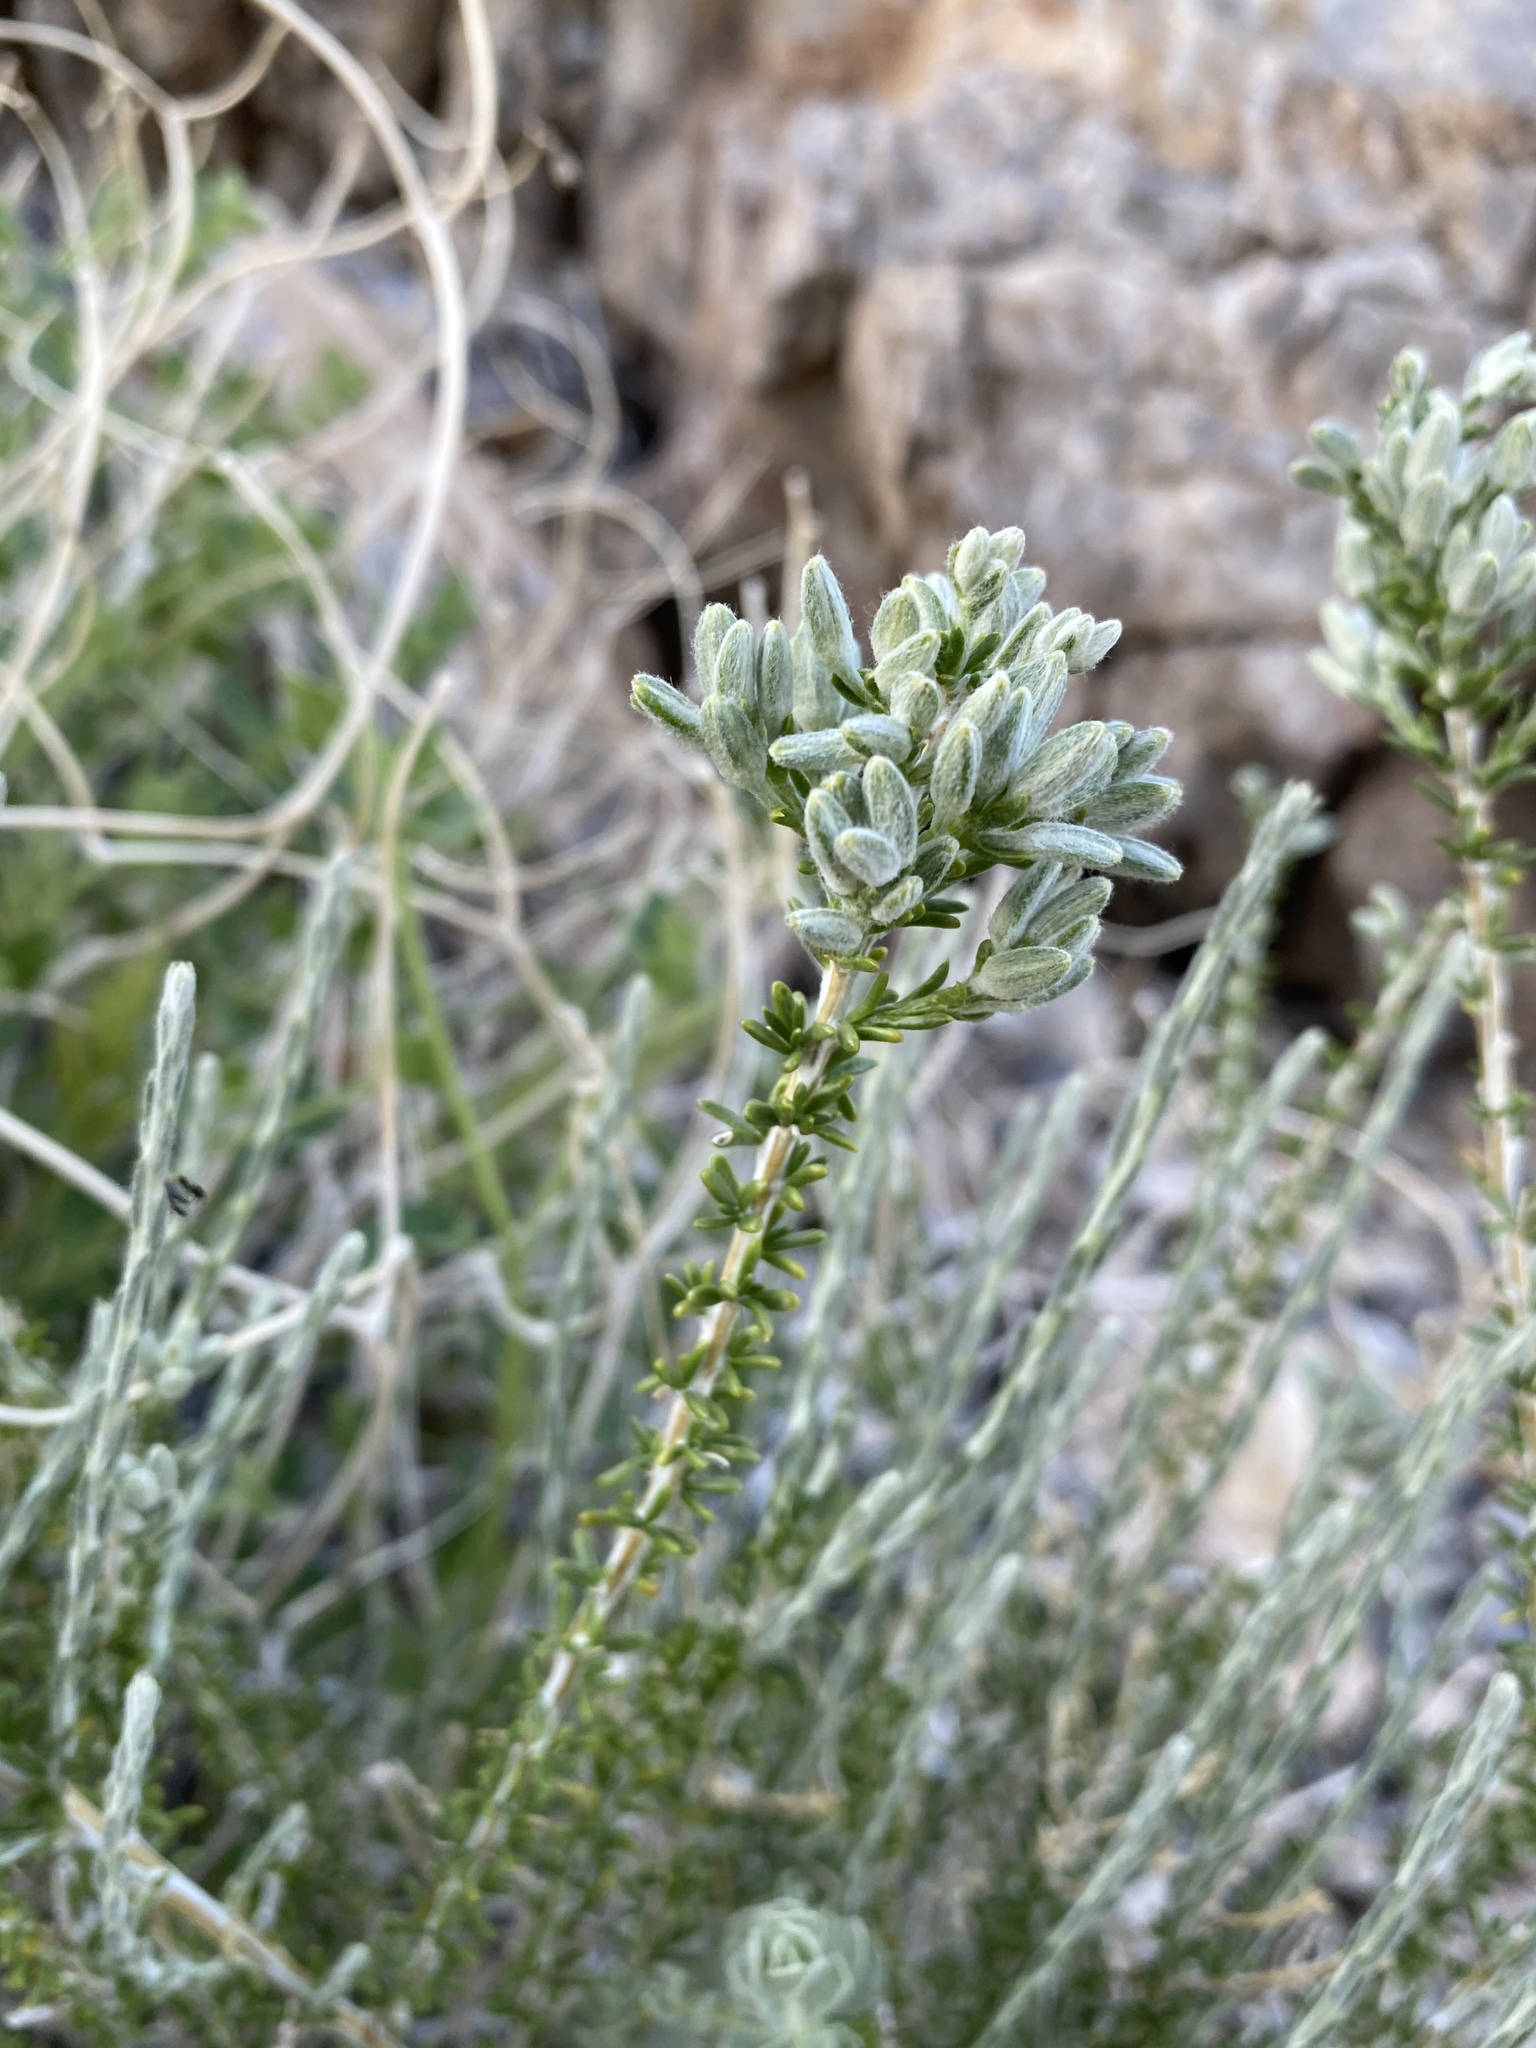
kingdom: Plantae
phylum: Tracheophyta
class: Magnoliopsida
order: Asterales
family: Asteraceae
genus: Tetradymia
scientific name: Tetradymia glabrata
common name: Smooth tetradymia
